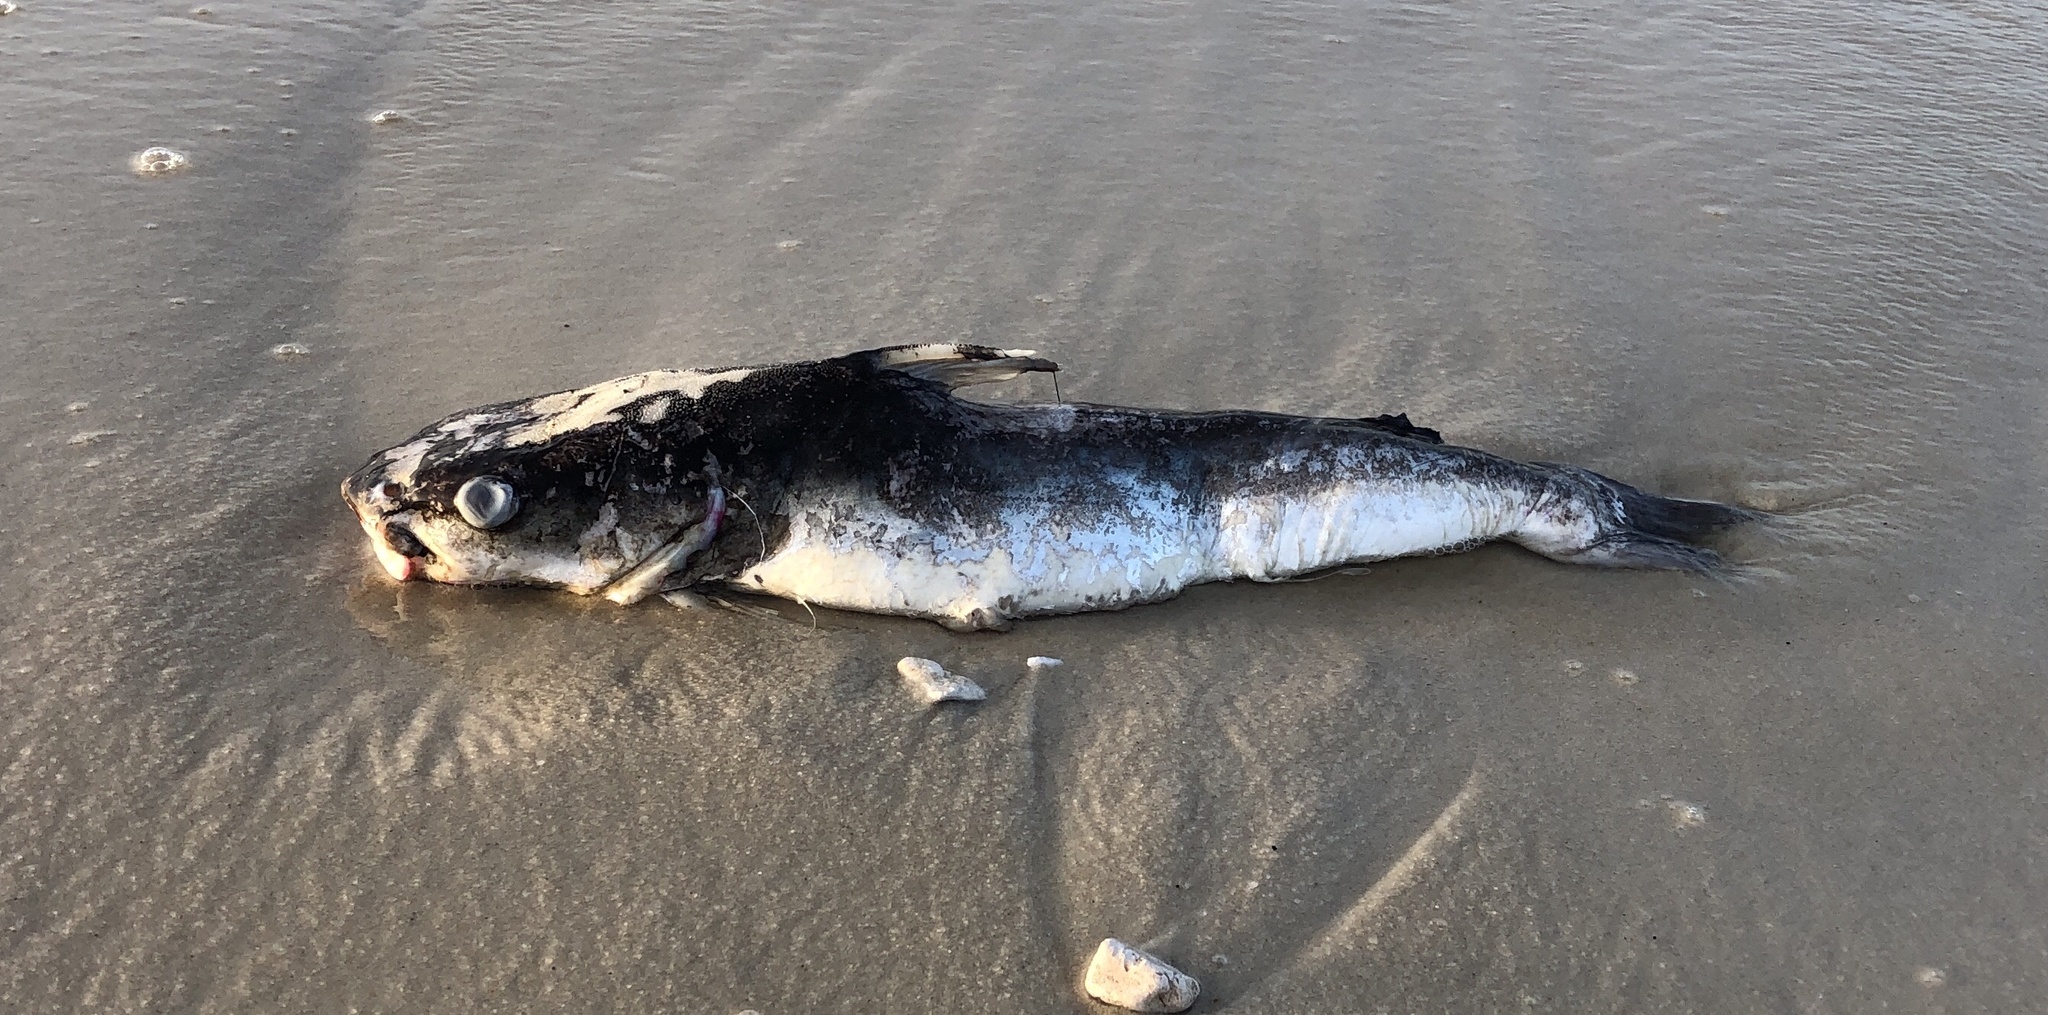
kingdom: Animalia
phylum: Chordata
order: Siluriformes
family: Ariidae
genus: Ariopsis
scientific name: Ariopsis felis
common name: Hardhead catfish
